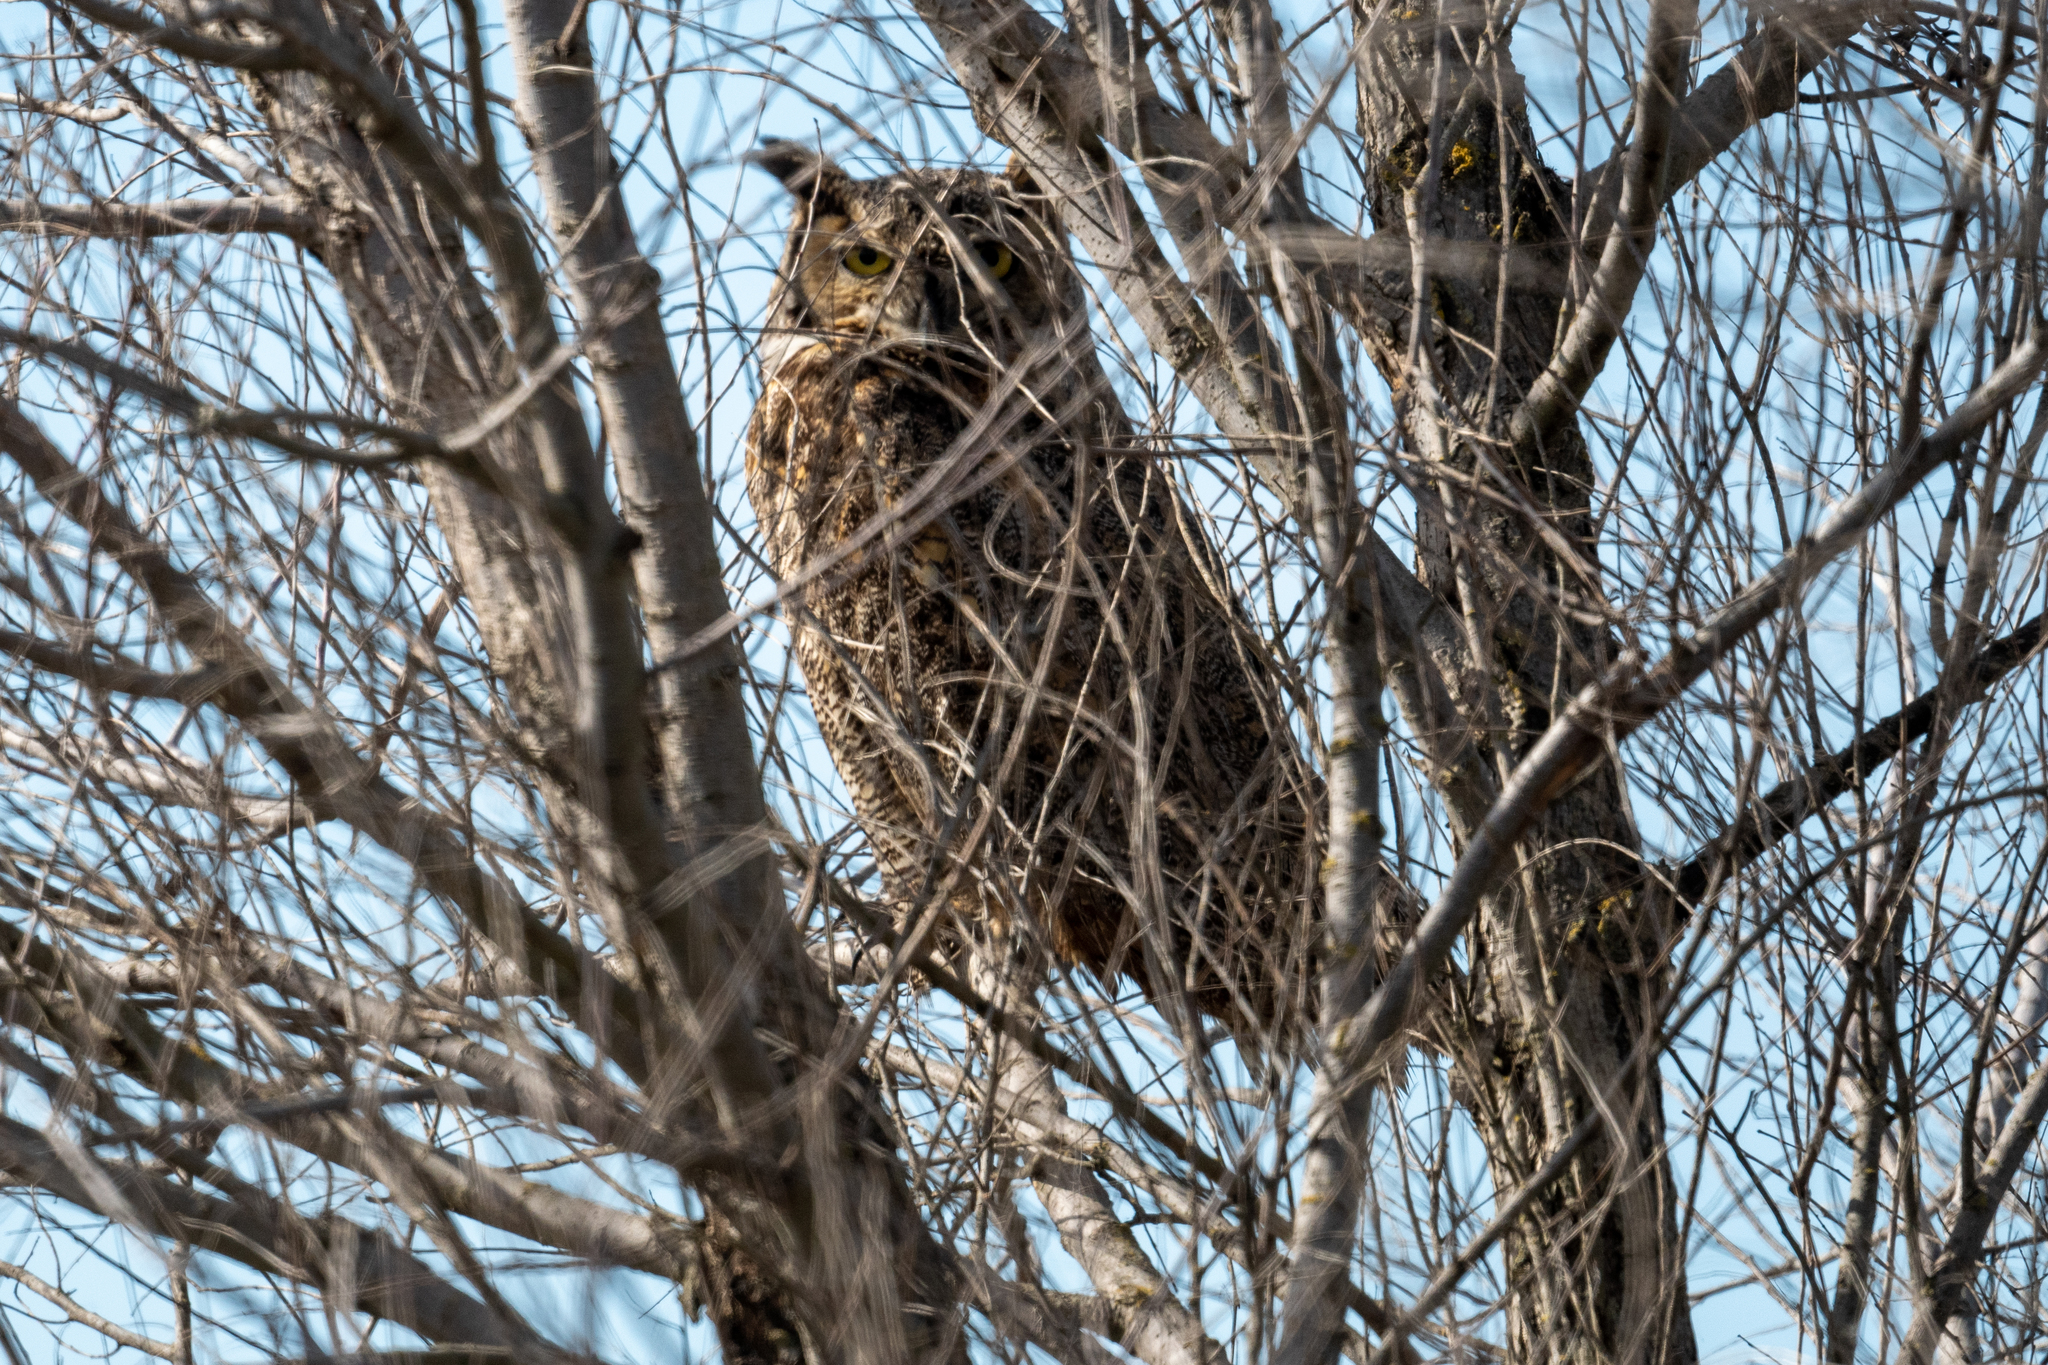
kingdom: Animalia
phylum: Chordata
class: Aves
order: Strigiformes
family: Strigidae
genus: Bubo
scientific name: Bubo virginianus
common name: Great horned owl
